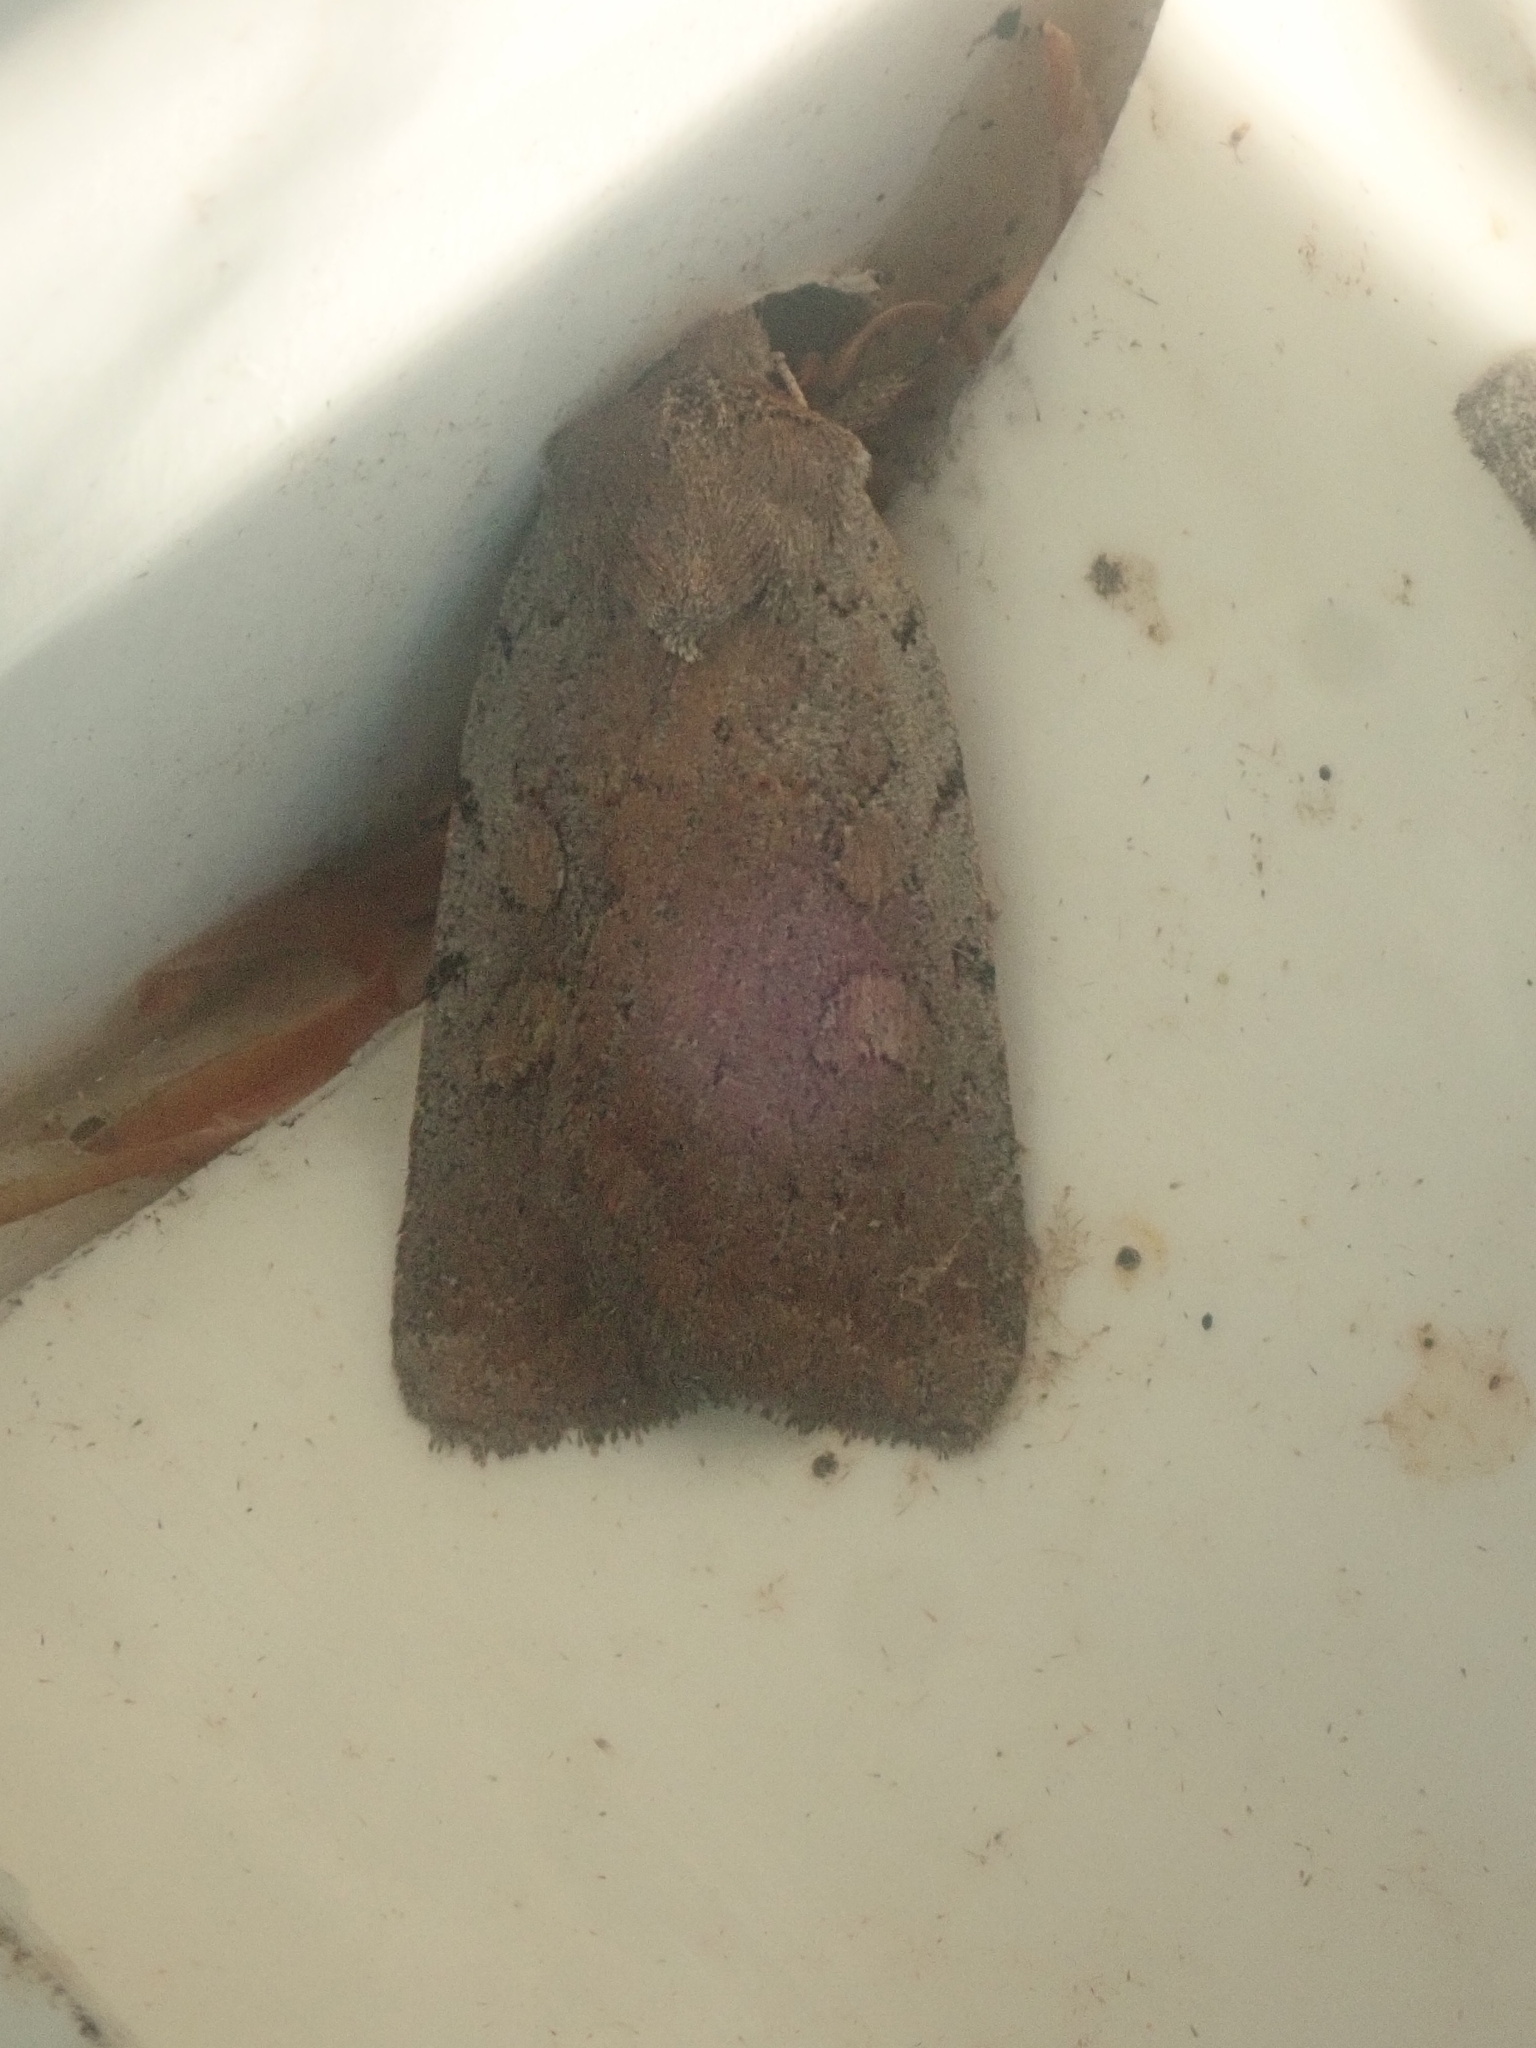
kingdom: Animalia
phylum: Arthropoda
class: Insecta
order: Lepidoptera
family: Noctuidae
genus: Xestia
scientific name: Xestia dilucida
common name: Dull reddish dart
